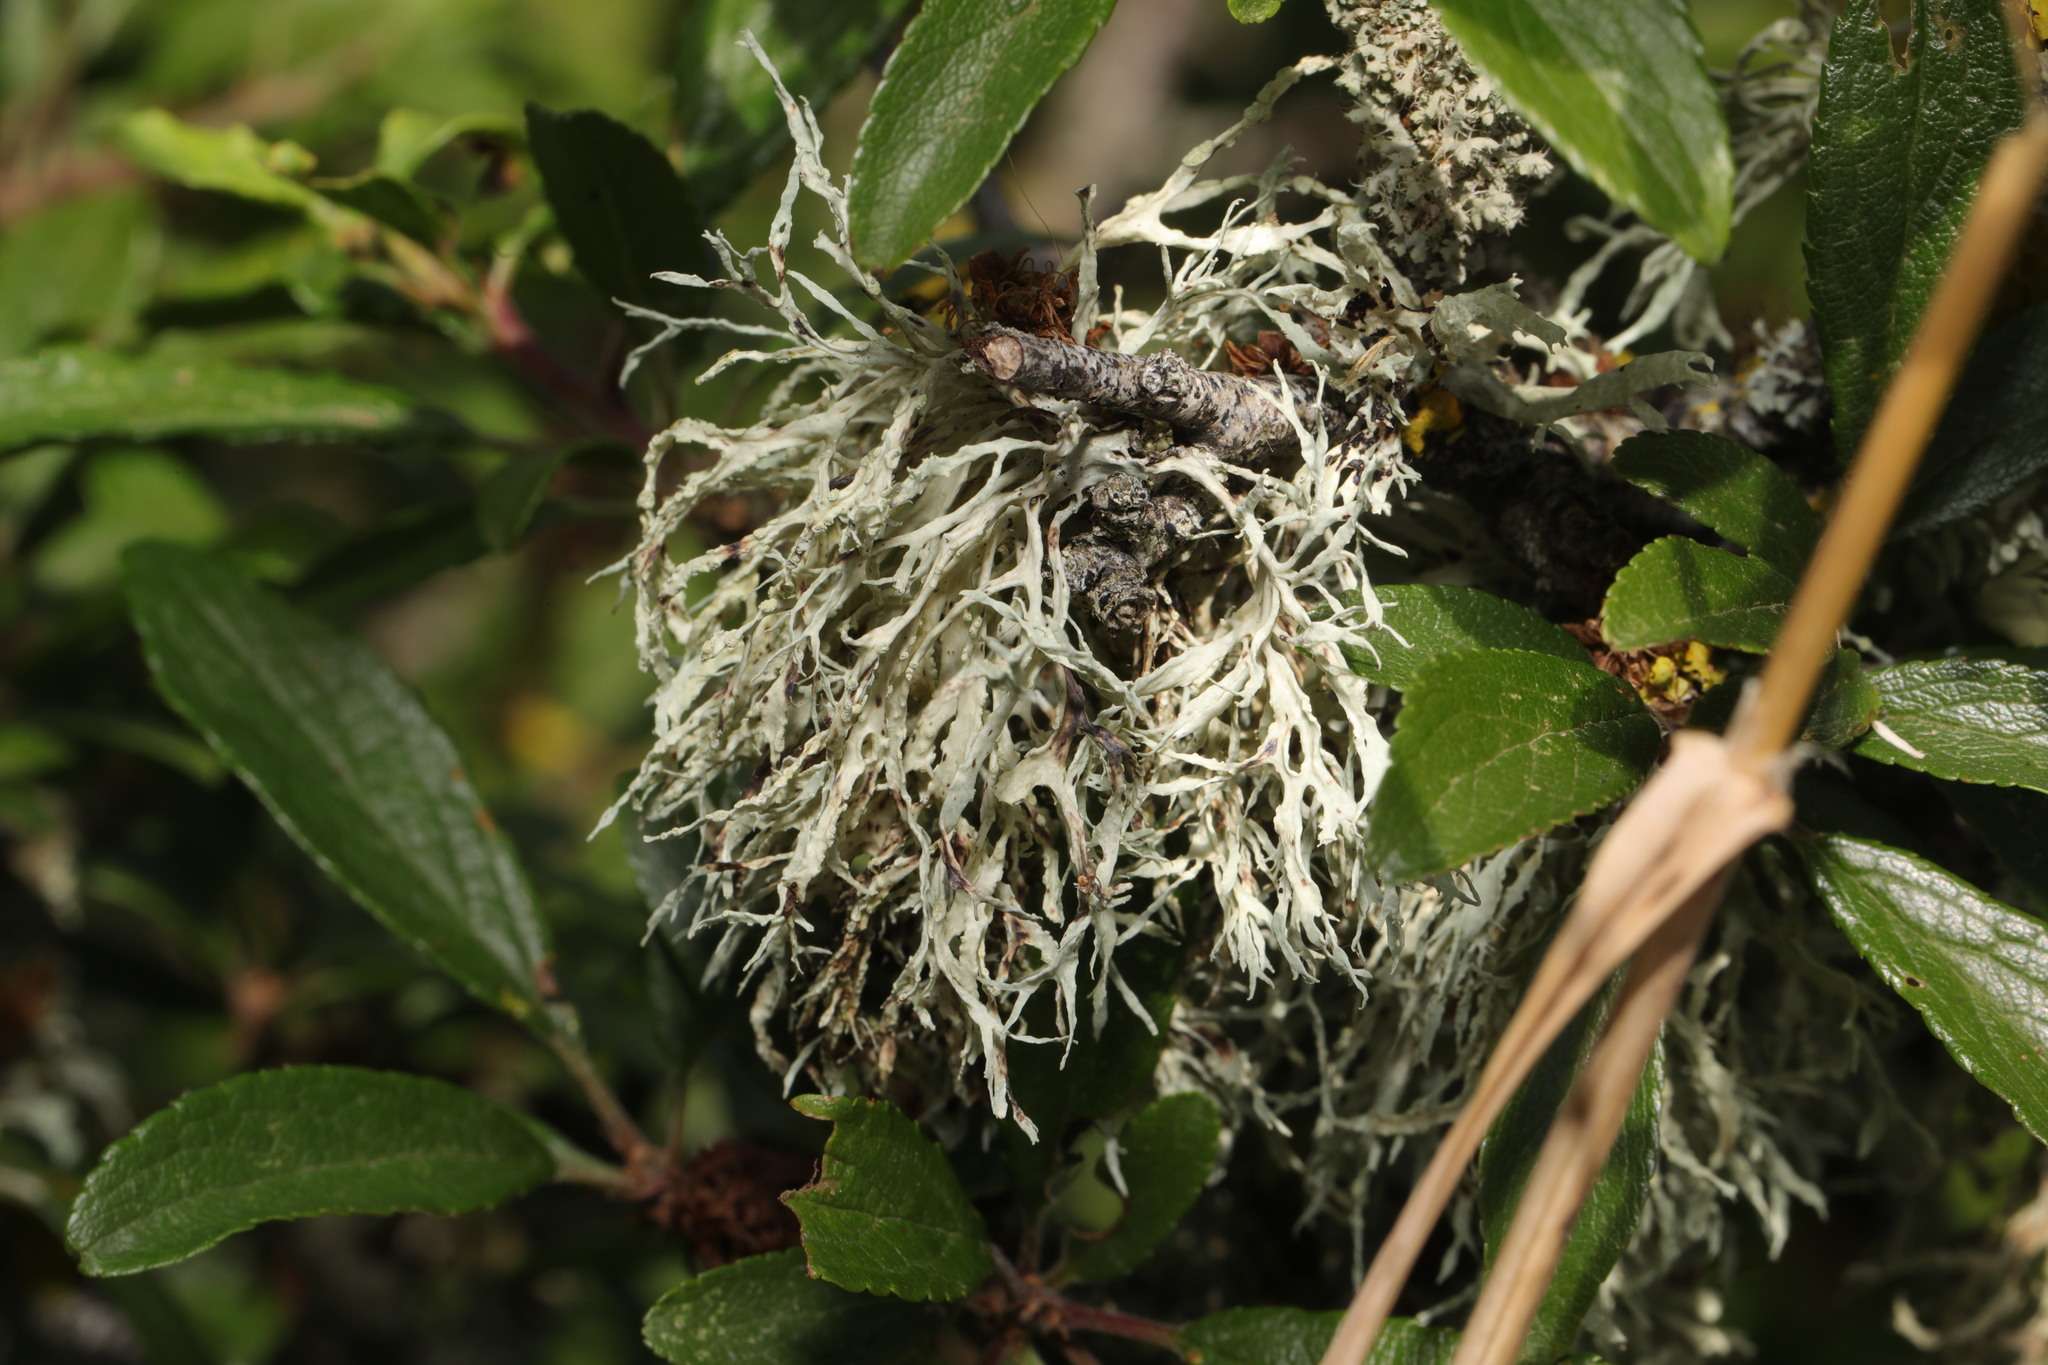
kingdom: Fungi
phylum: Ascomycota
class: Lecanoromycetes
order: Lecanorales
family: Ramalinaceae
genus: Ramalina
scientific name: Ramalina farinacea
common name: Farinose cartilage lichen
